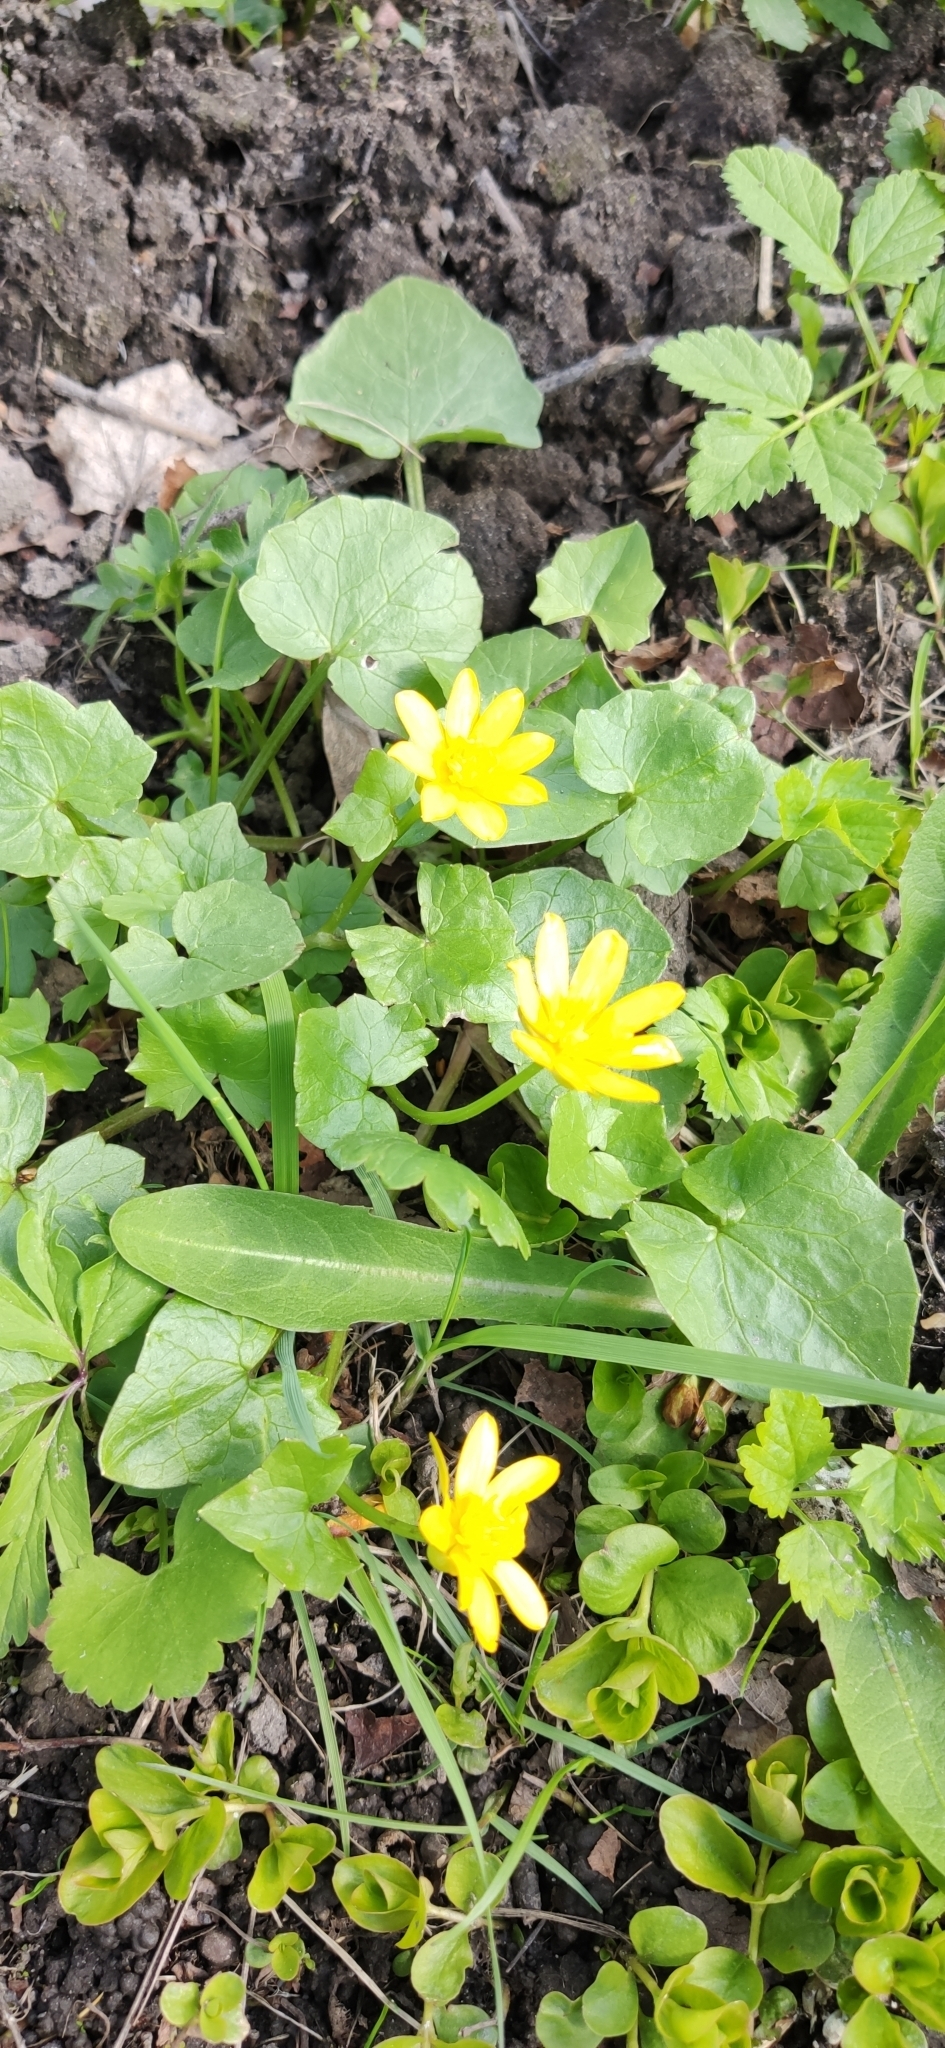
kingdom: Plantae
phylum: Tracheophyta
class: Magnoliopsida
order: Ranunculales
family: Ranunculaceae
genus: Ficaria
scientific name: Ficaria verna
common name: Lesser celandine
